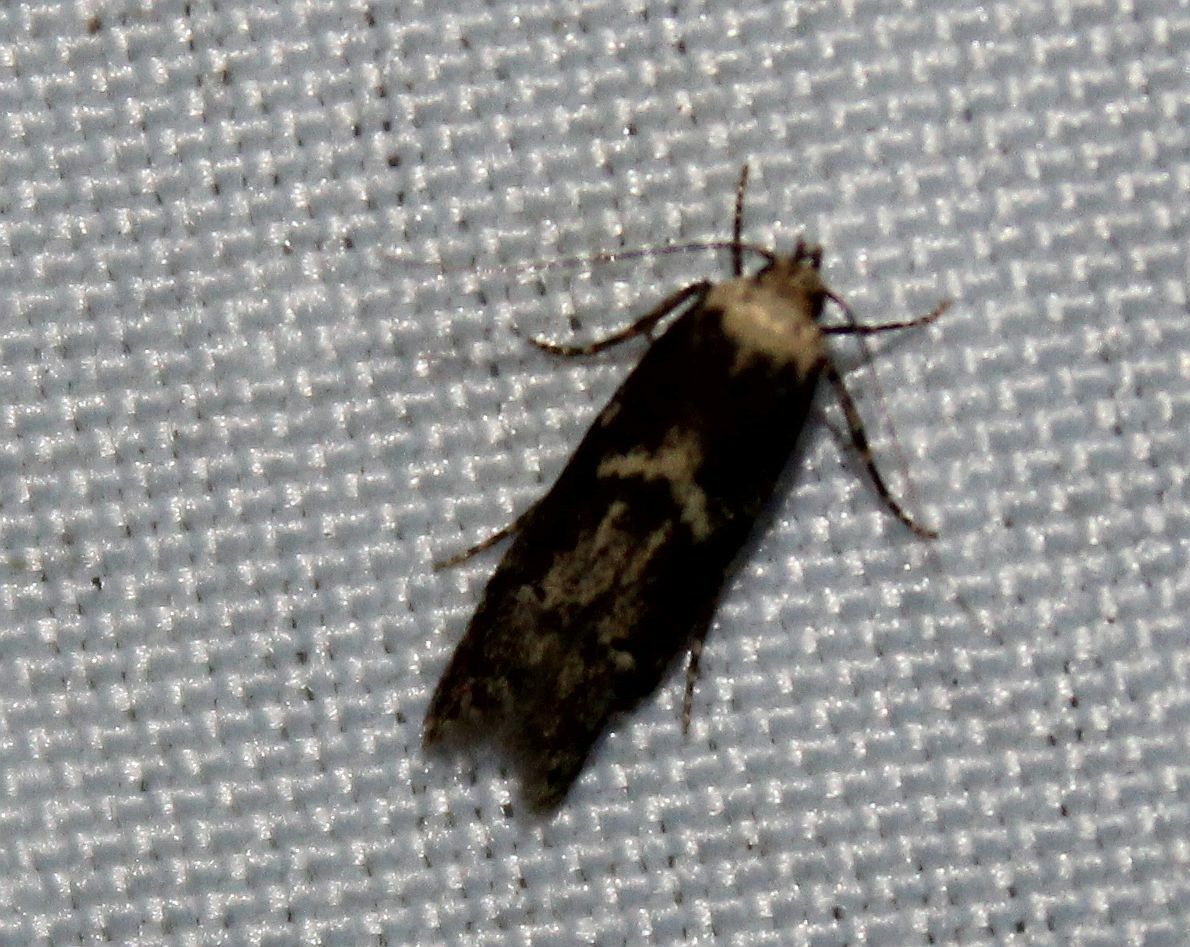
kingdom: Animalia
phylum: Arthropoda
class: Insecta
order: Lepidoptera
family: Blastobasidae
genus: Blastobasis
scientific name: Blastobasis adustella
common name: Dingy dowd
